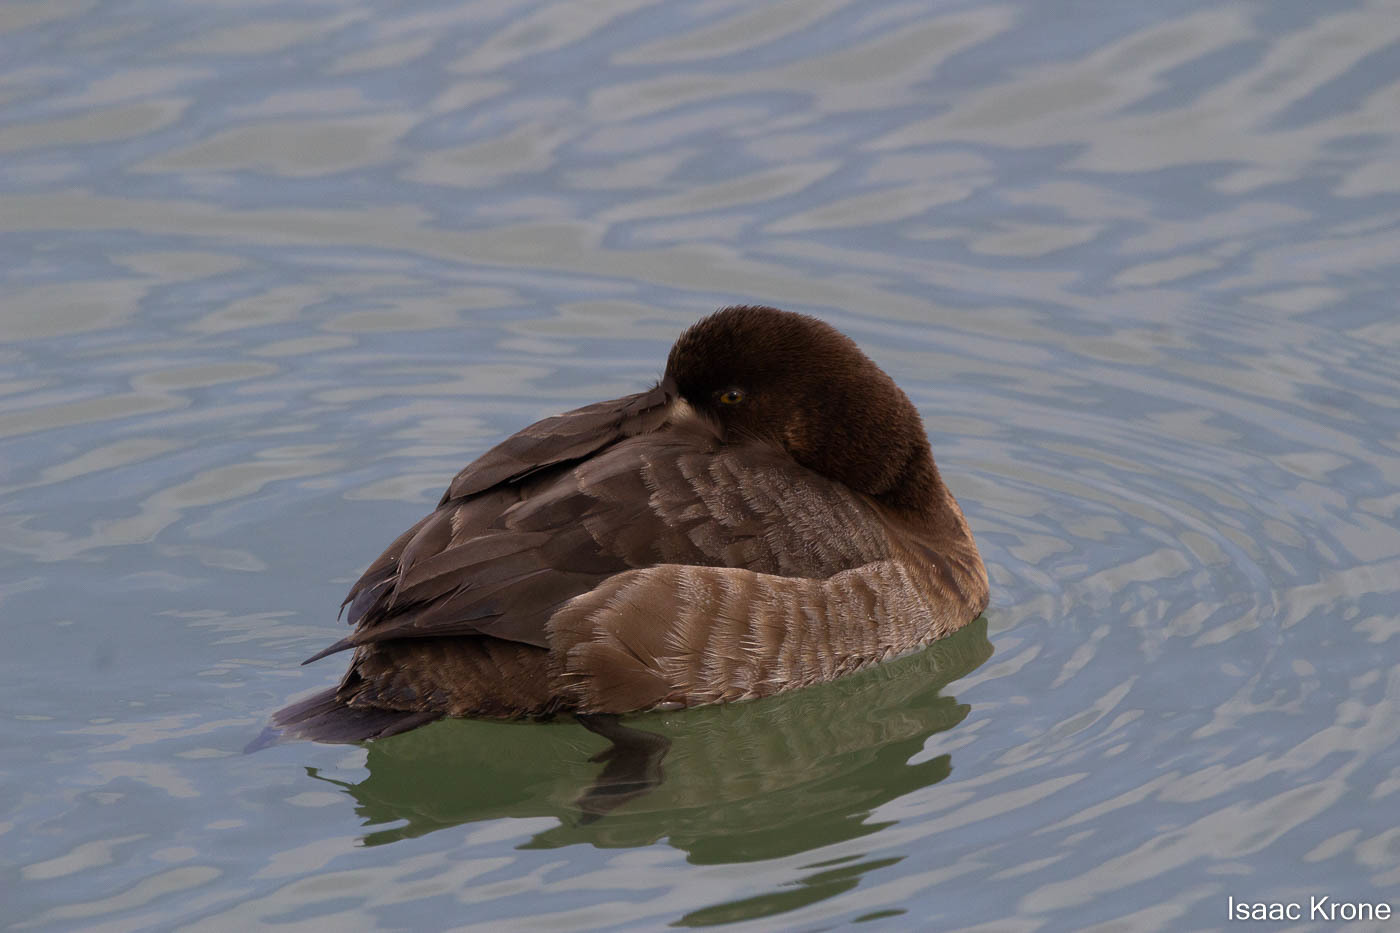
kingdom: Animalia
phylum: Chordata
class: Aves
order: Anseriformes
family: Anatidae
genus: Aythya
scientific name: Aythya marila
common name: Greater scaup
